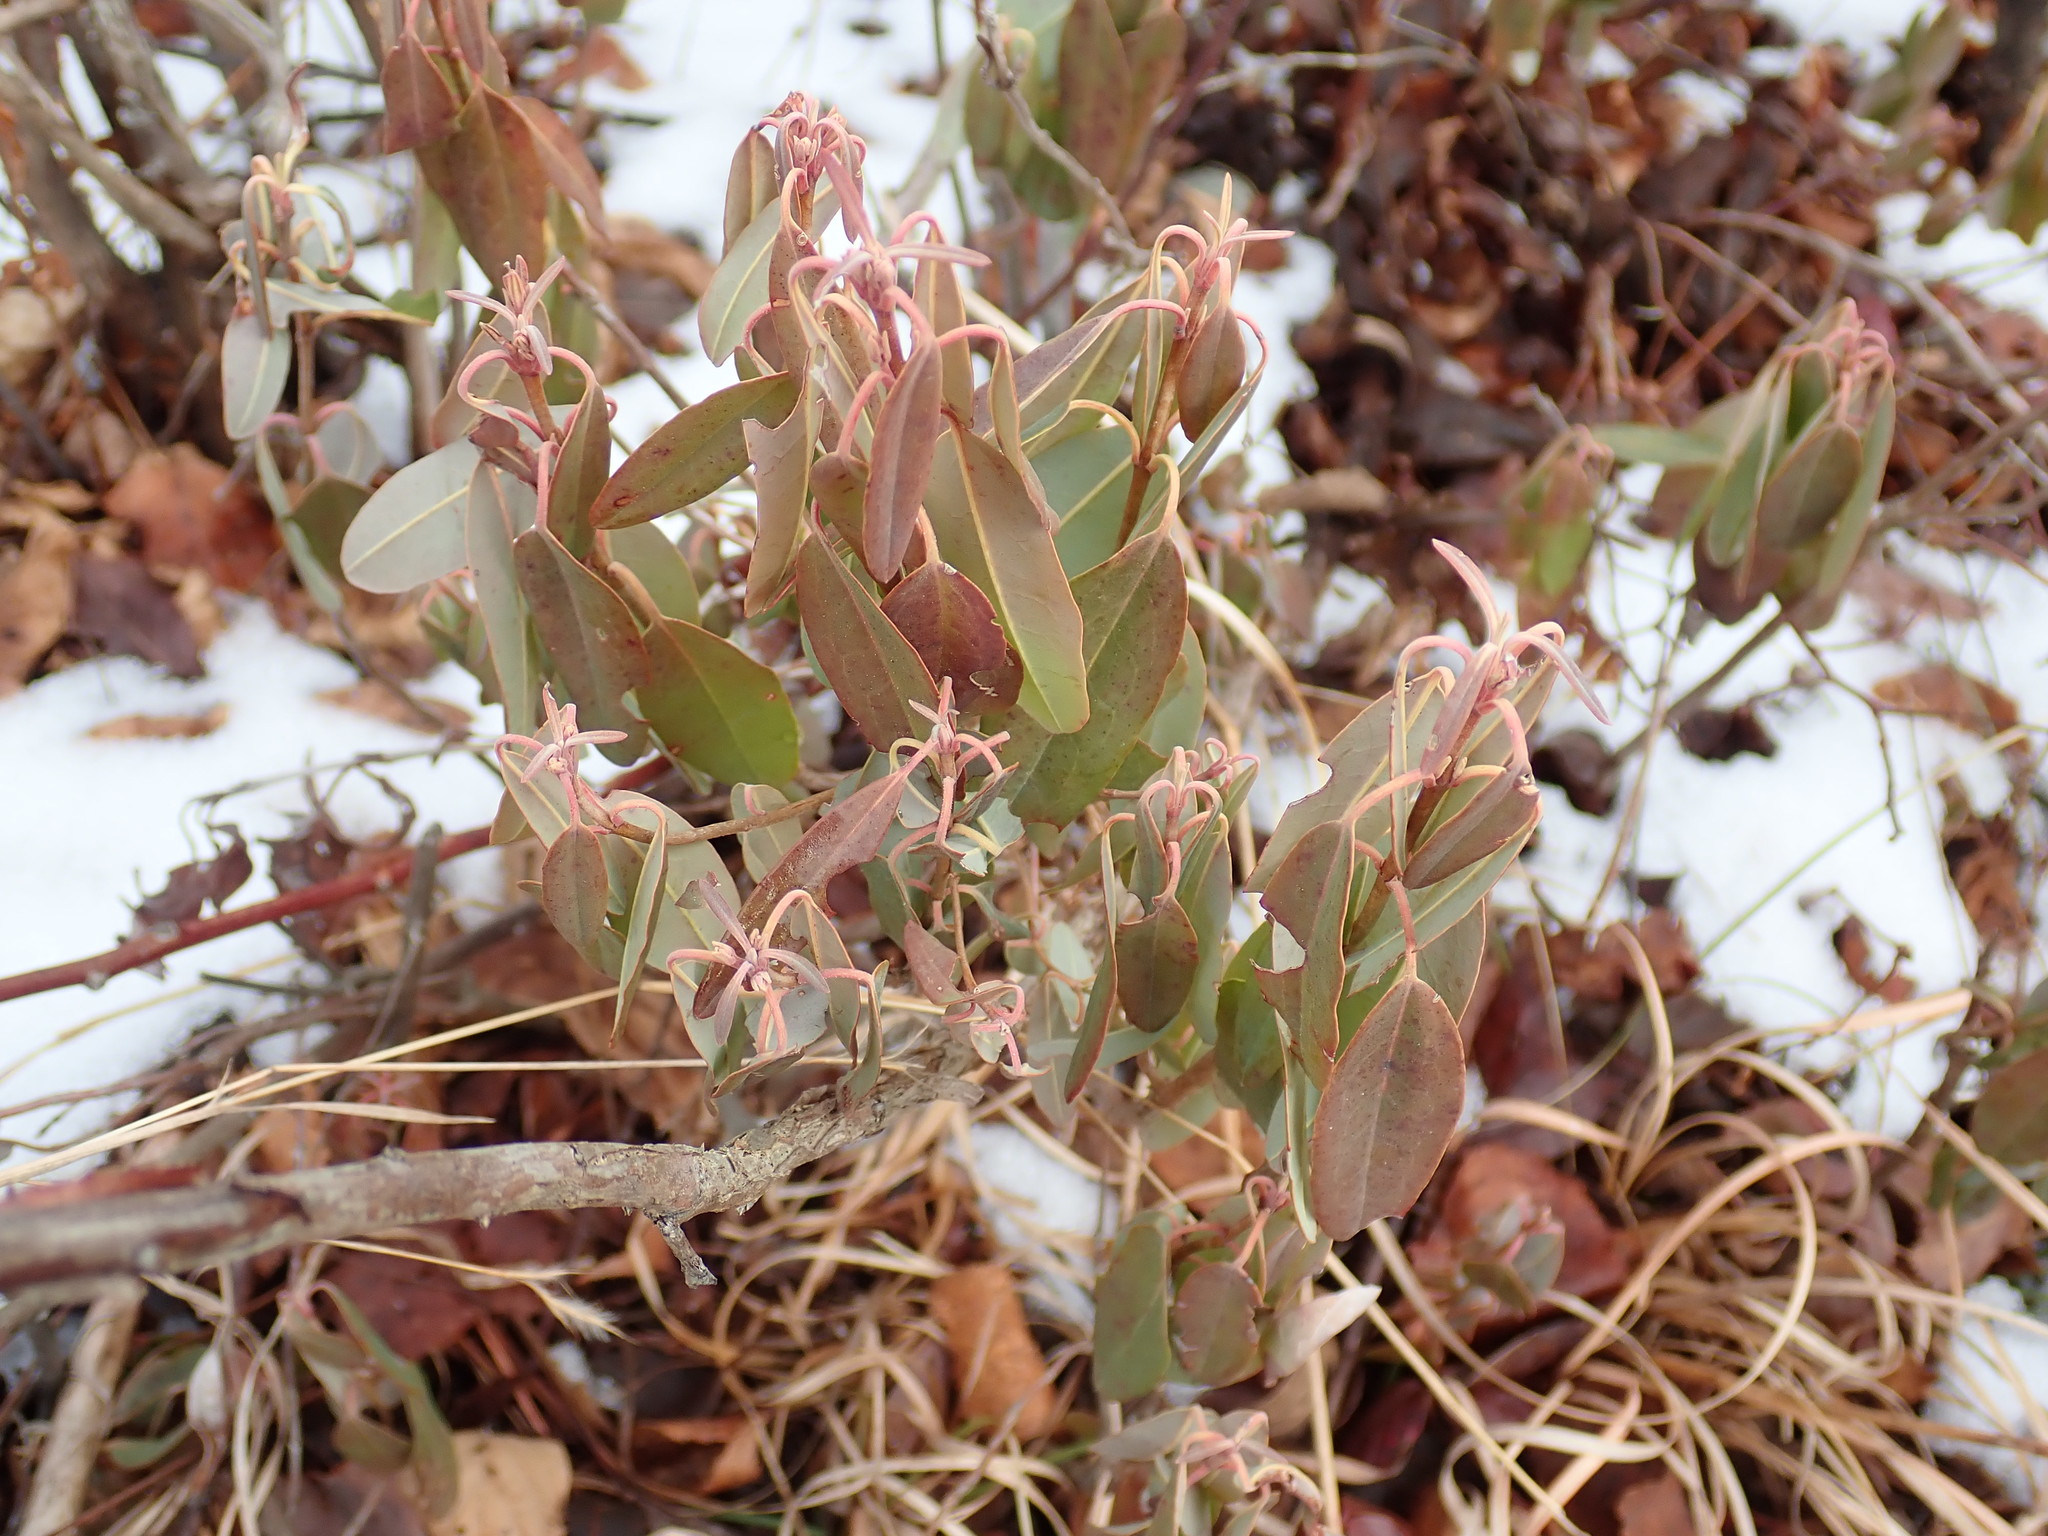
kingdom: Plantae
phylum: Tracheophyta
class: Magnoliopsida
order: Ericales
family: Ericaceae
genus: Kalmia
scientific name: Kalmia angustifolia
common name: Sheep-laurel
